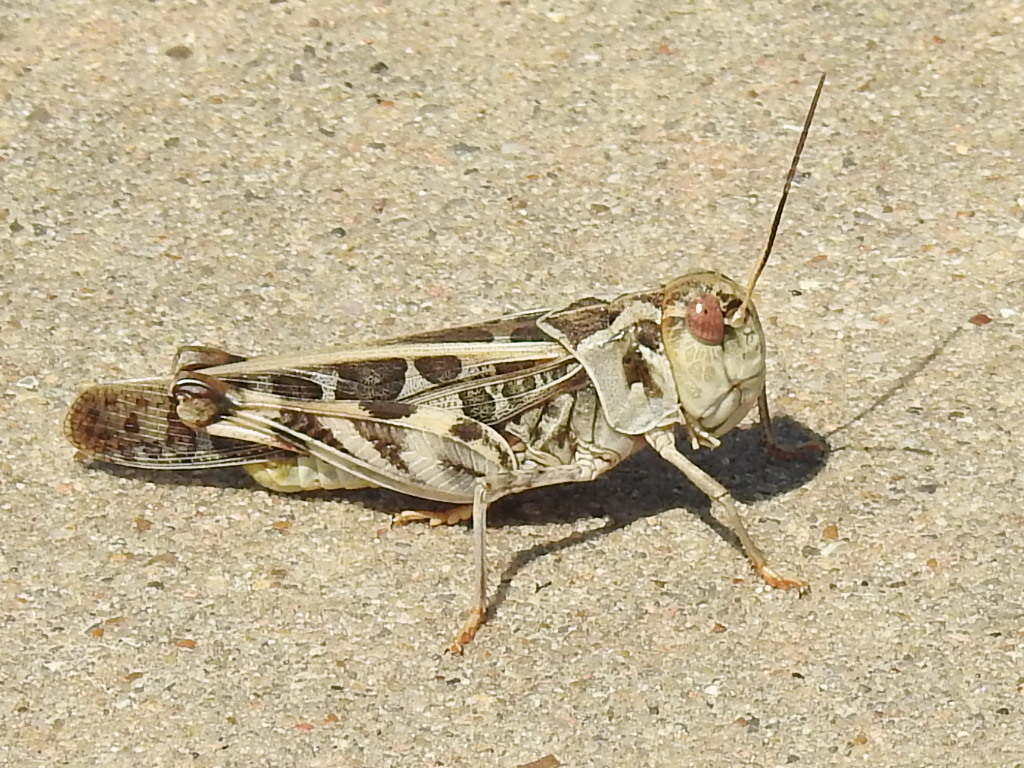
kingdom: Animalia
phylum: Arthropoda
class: Insecta
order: Orthoptera
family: Acrididae
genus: Hippiscus
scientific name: Hippiscus ocelote
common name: Wrinkled grasshopper
